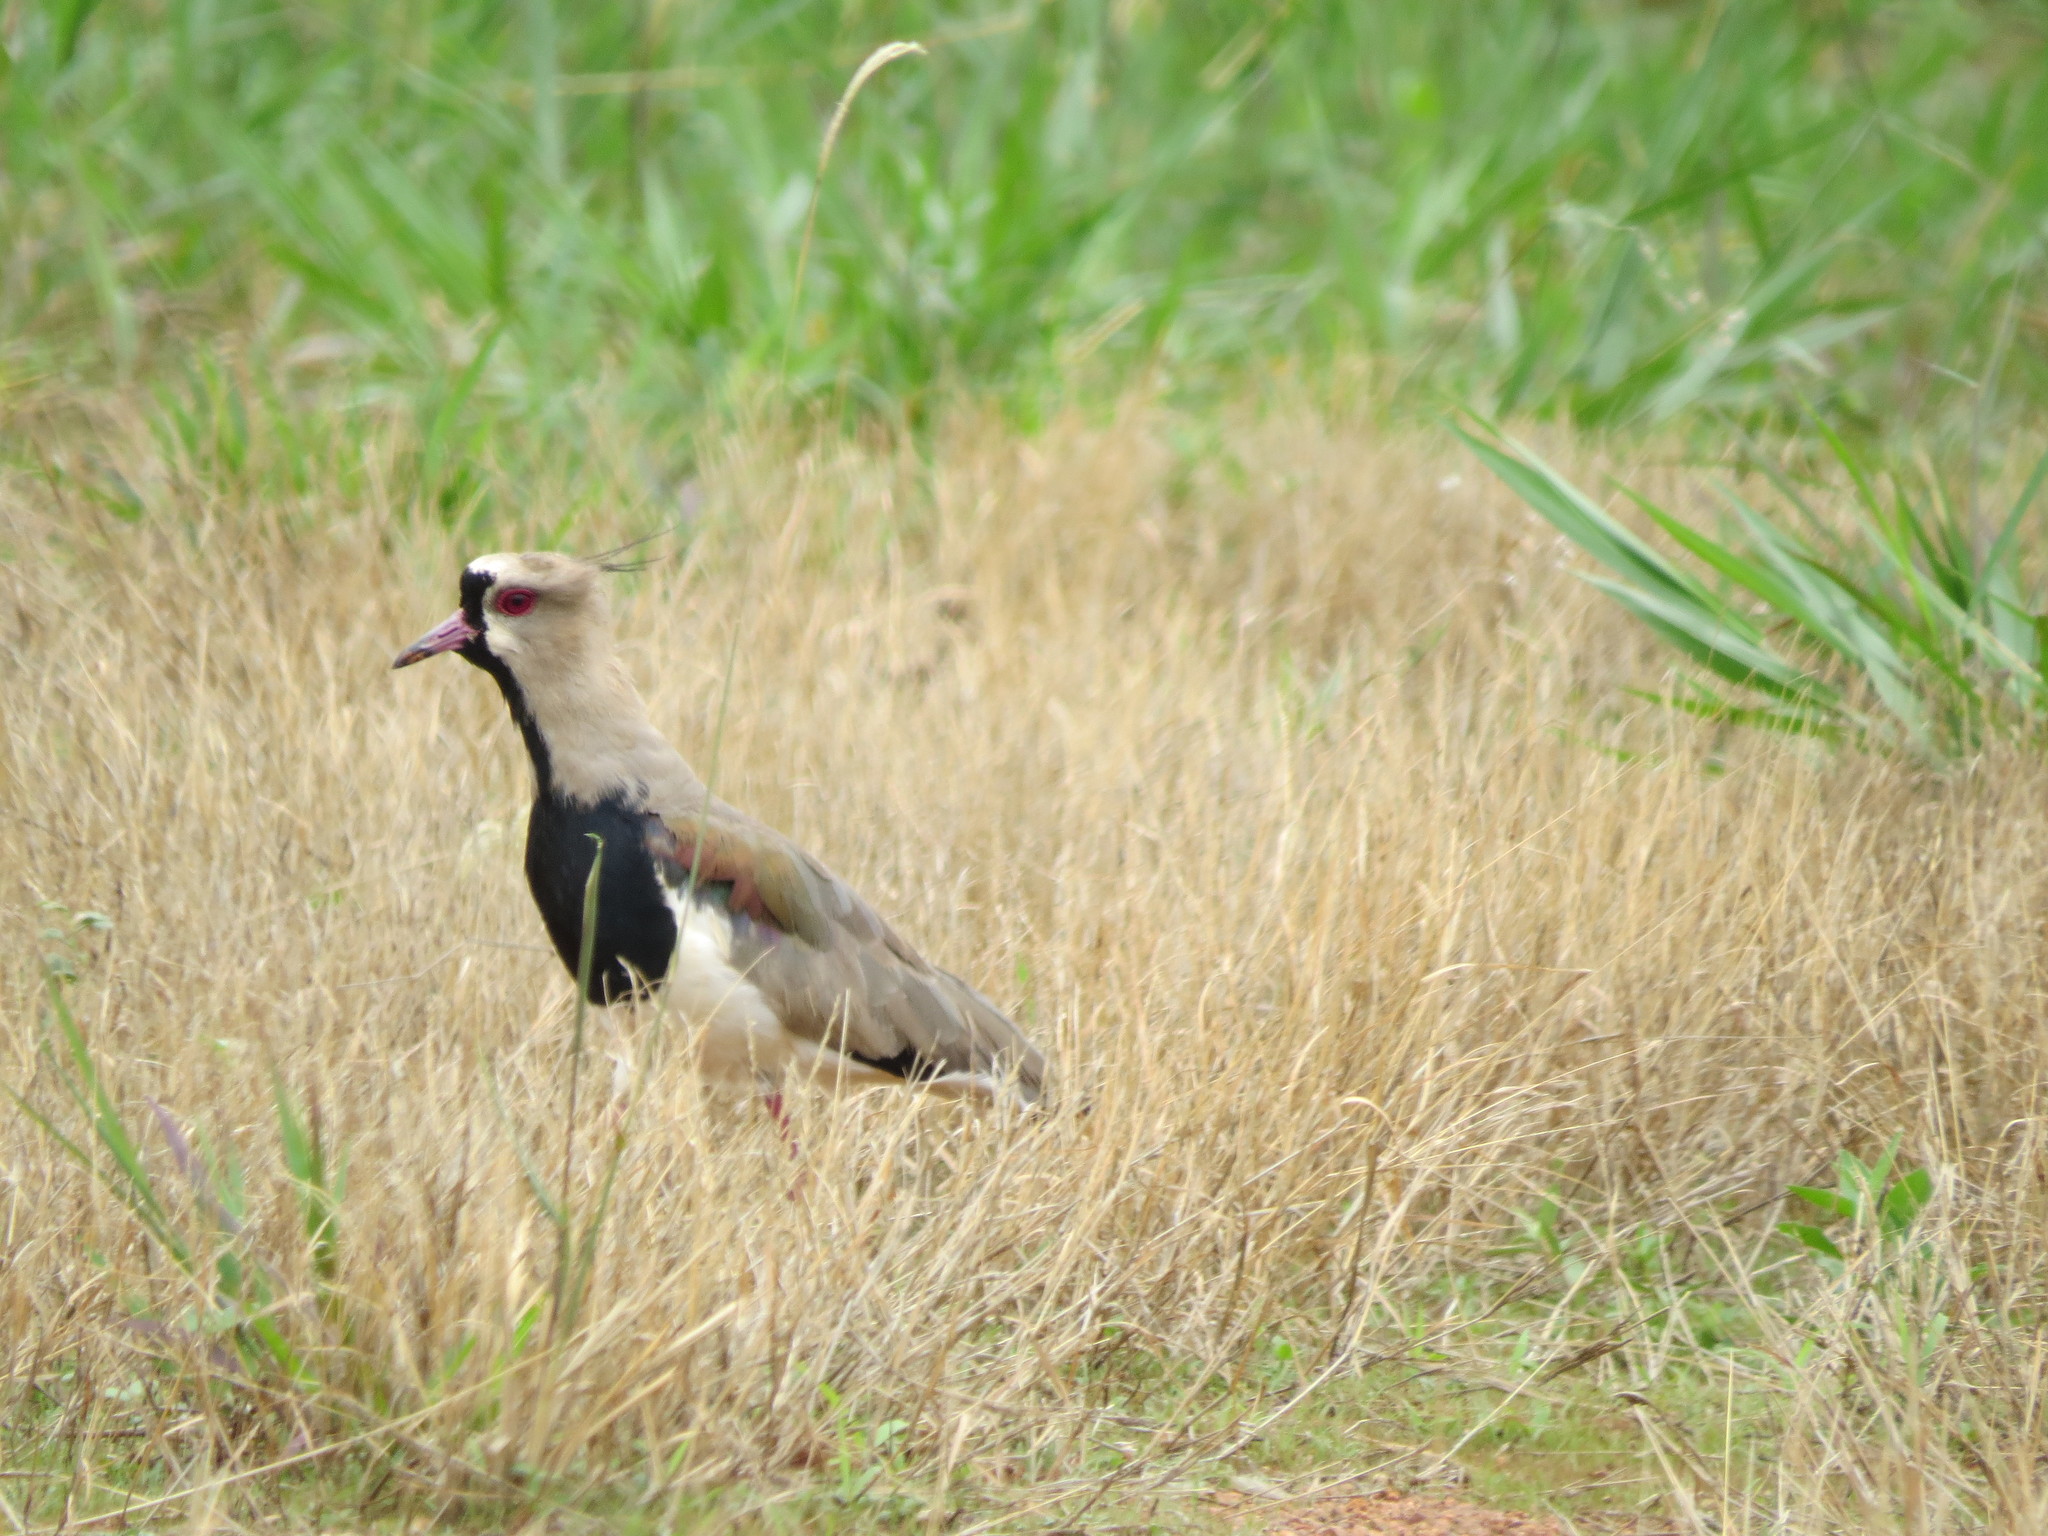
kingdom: Animalia
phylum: Chordata
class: Aves
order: Charadriiformes
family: Charadriidae
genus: Vanellus
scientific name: Vanellus chilensis
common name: Southern lapwing
